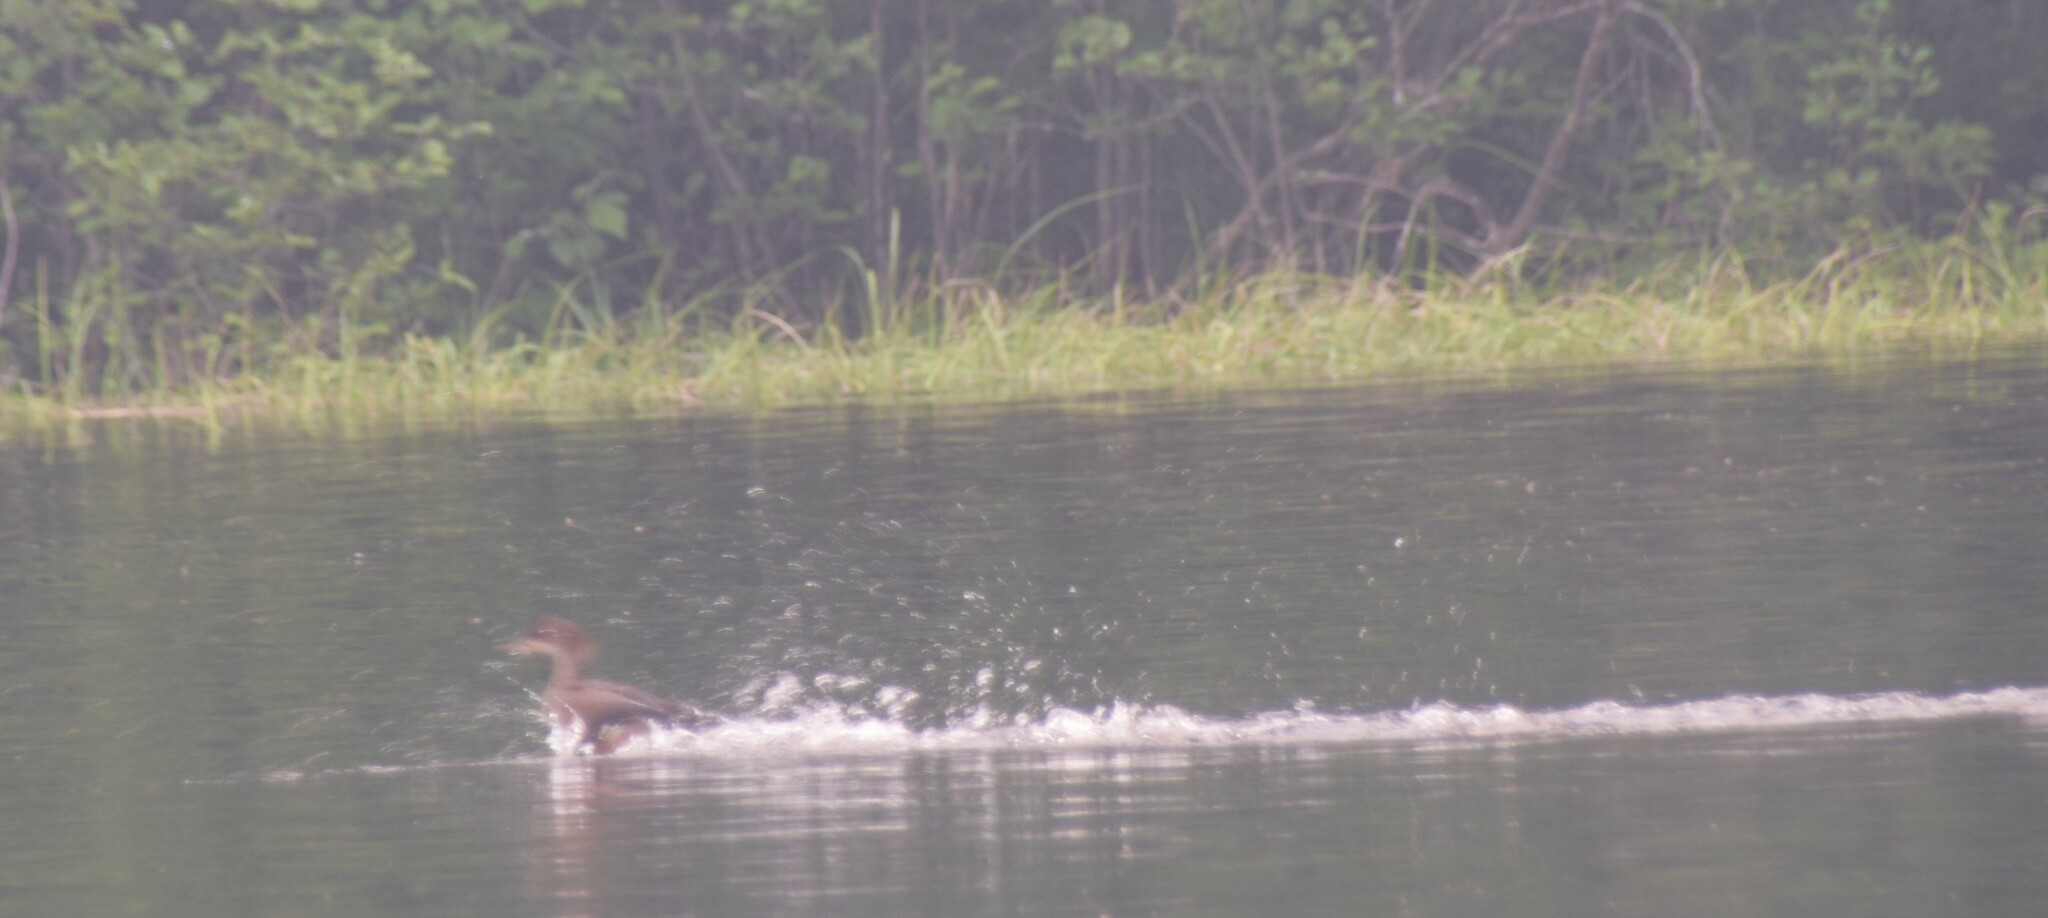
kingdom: Animalia
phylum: Chordata
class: Aves
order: Anseriformes
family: Anatidae
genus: Lophodytes
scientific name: Lophodytes cucullatus
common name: Hooded merganser
